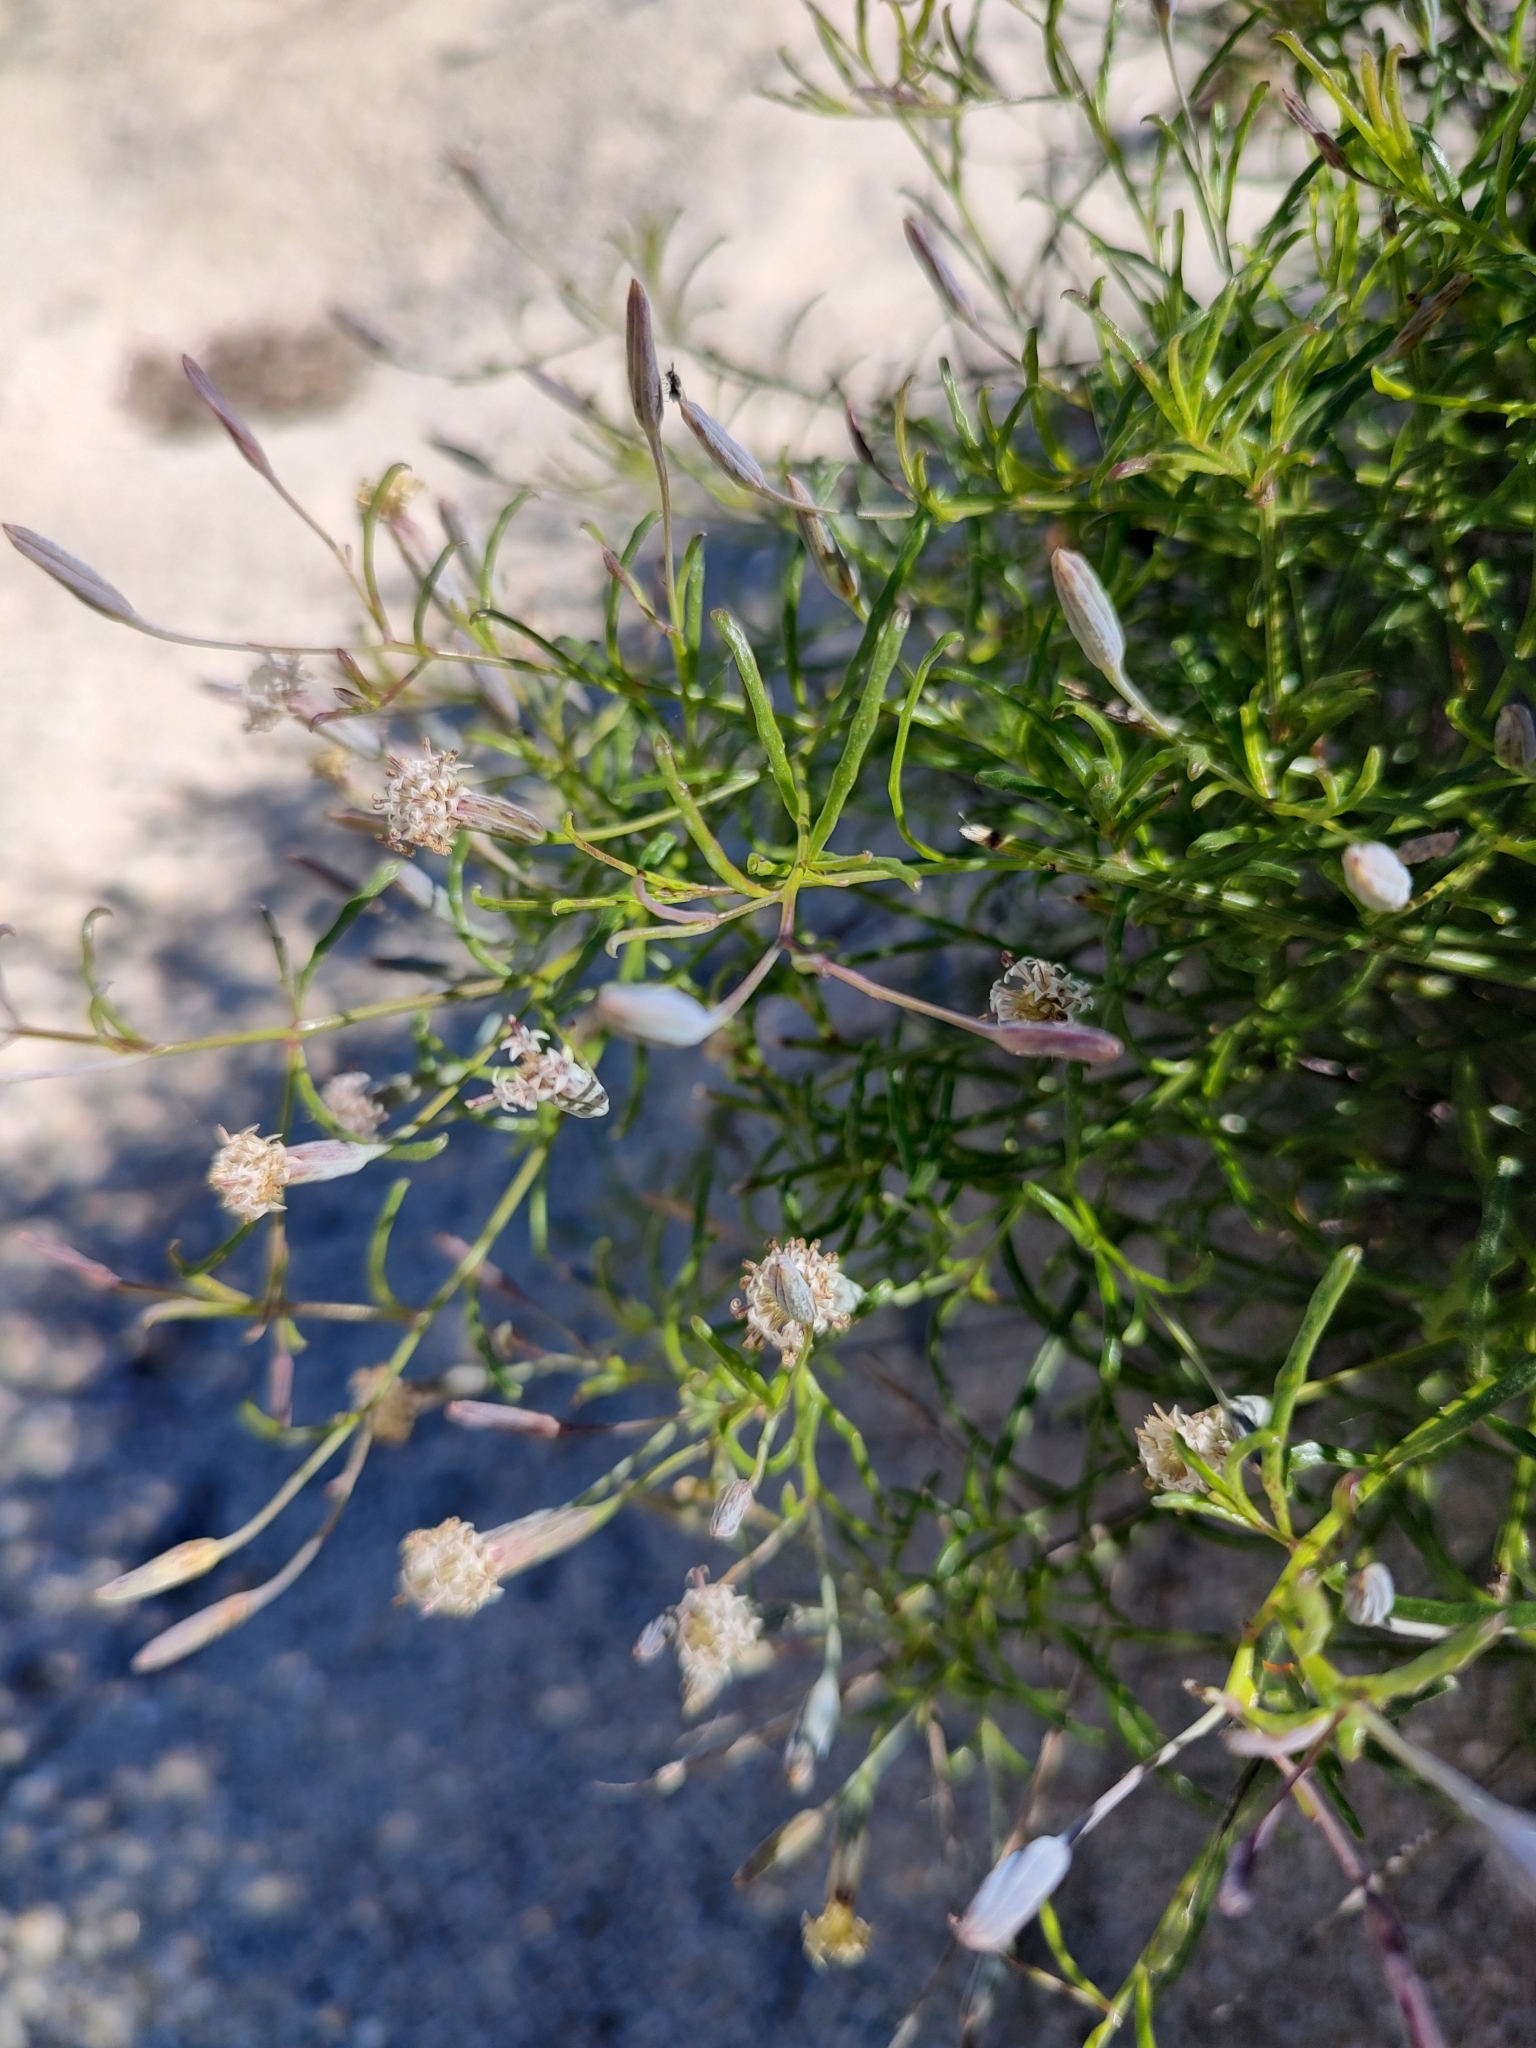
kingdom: Plantae
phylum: Tracheophyta
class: Magnoliopsida
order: Asterales
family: Asteraceae
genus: Porophyllum
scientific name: Porophyllum gracile
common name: Odora
